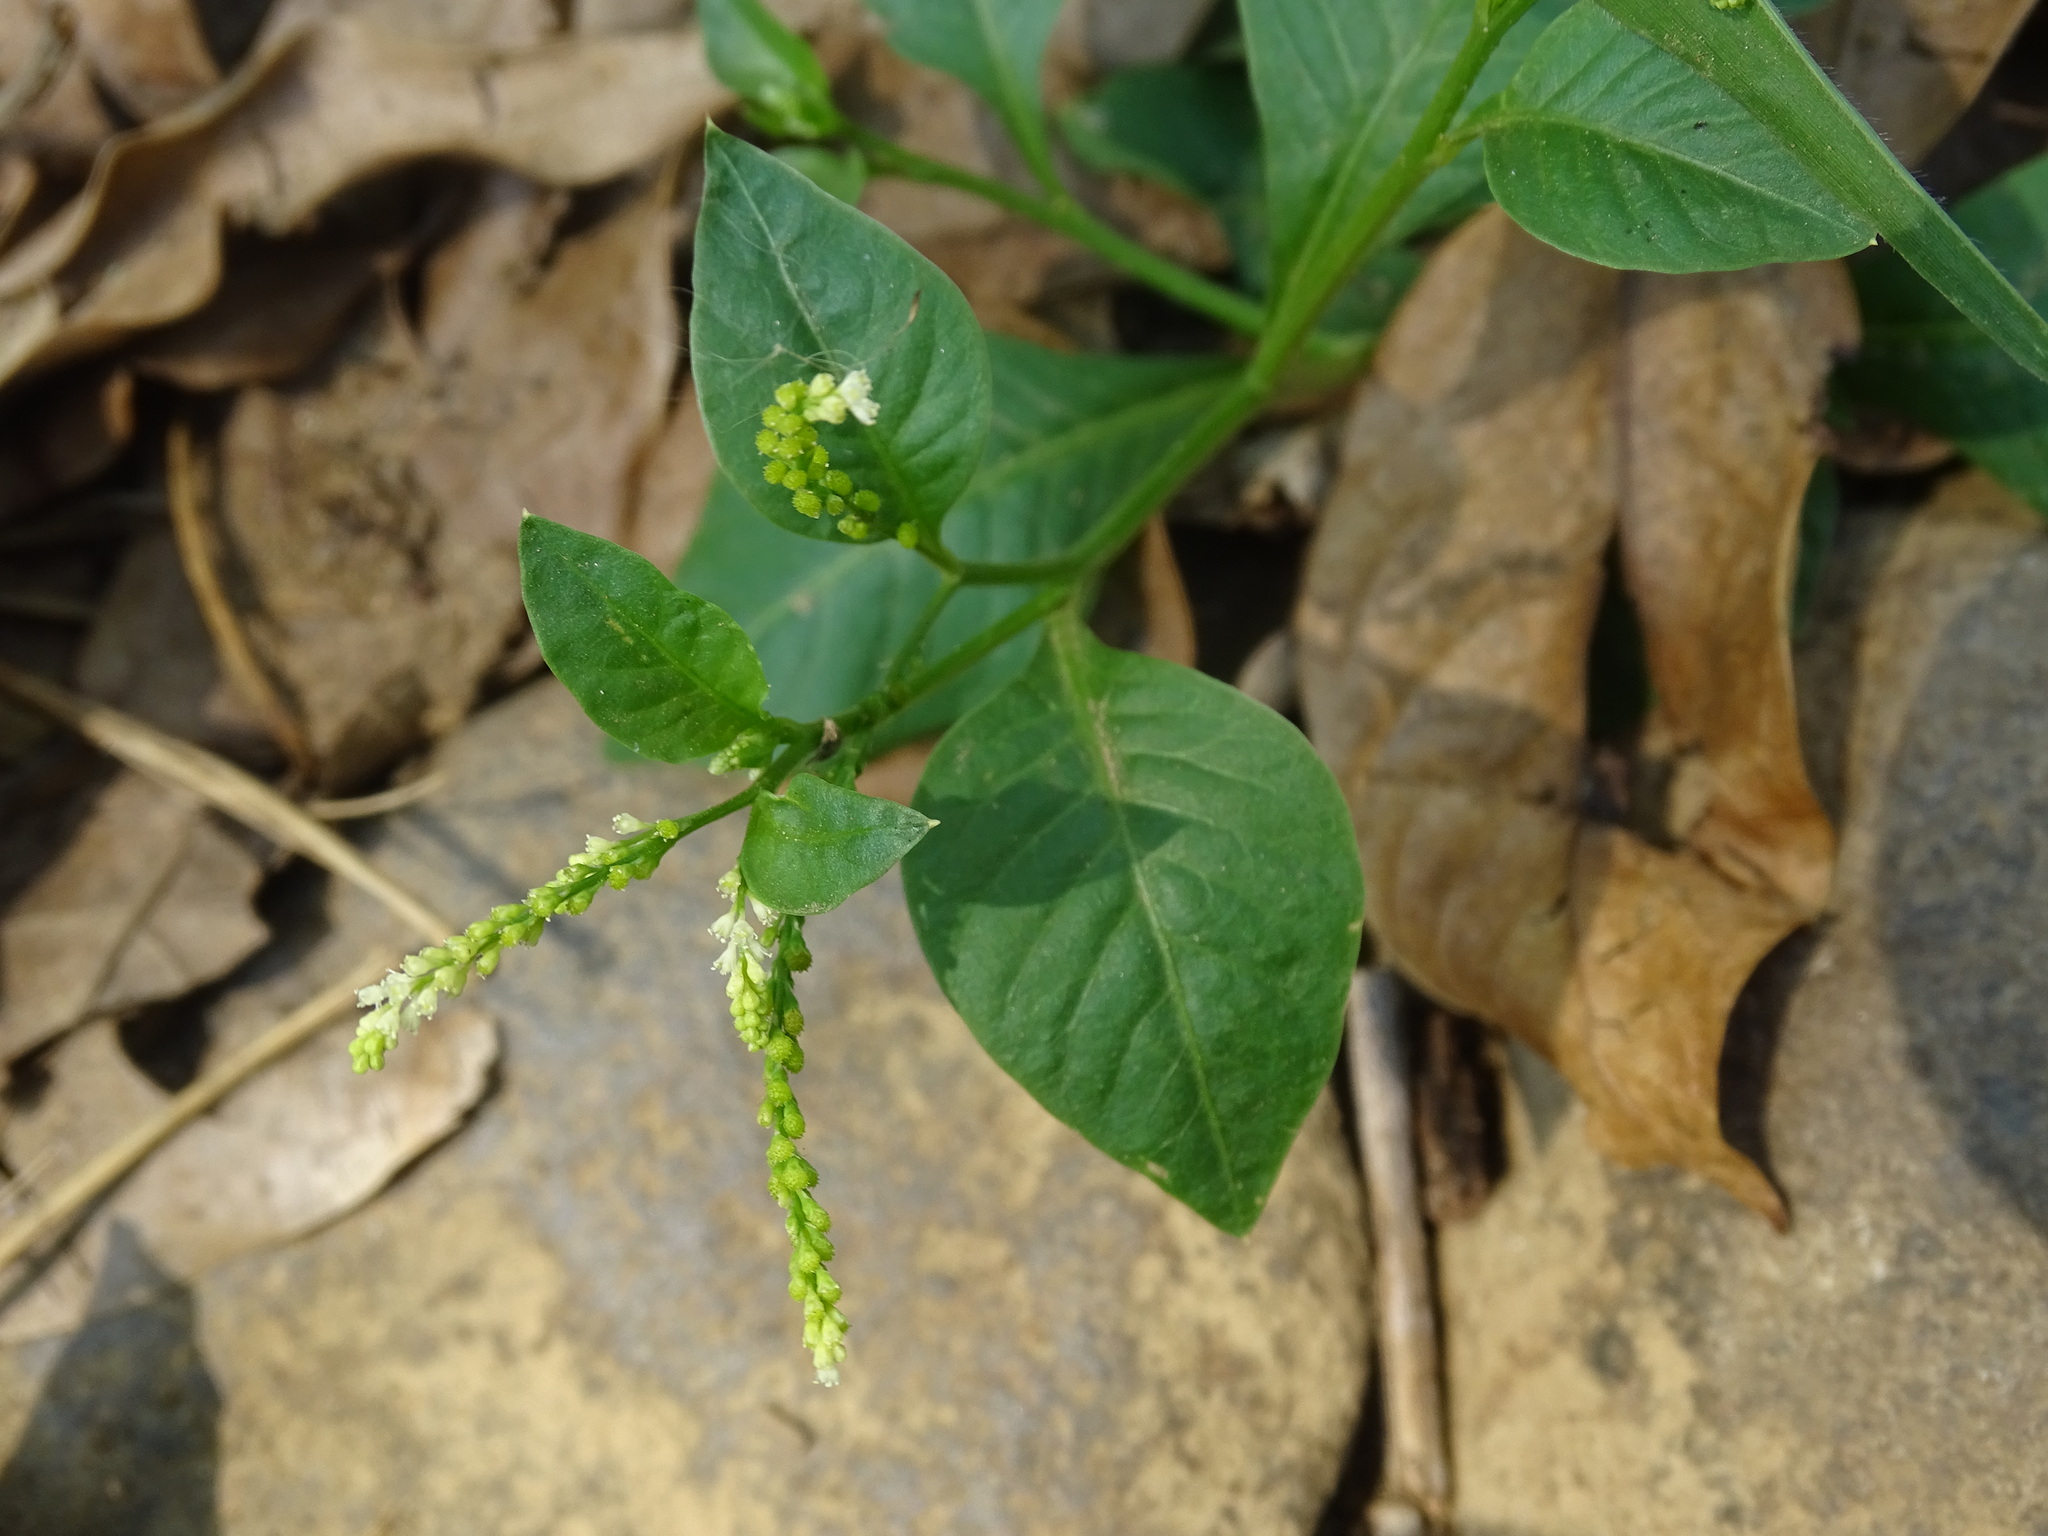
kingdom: Plantae
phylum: Tracheophyta
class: Magnoliopsida
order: Caryophyllales
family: Microteaceae
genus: Microtea
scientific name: Microtea debilis
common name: Weak jumby peppe
